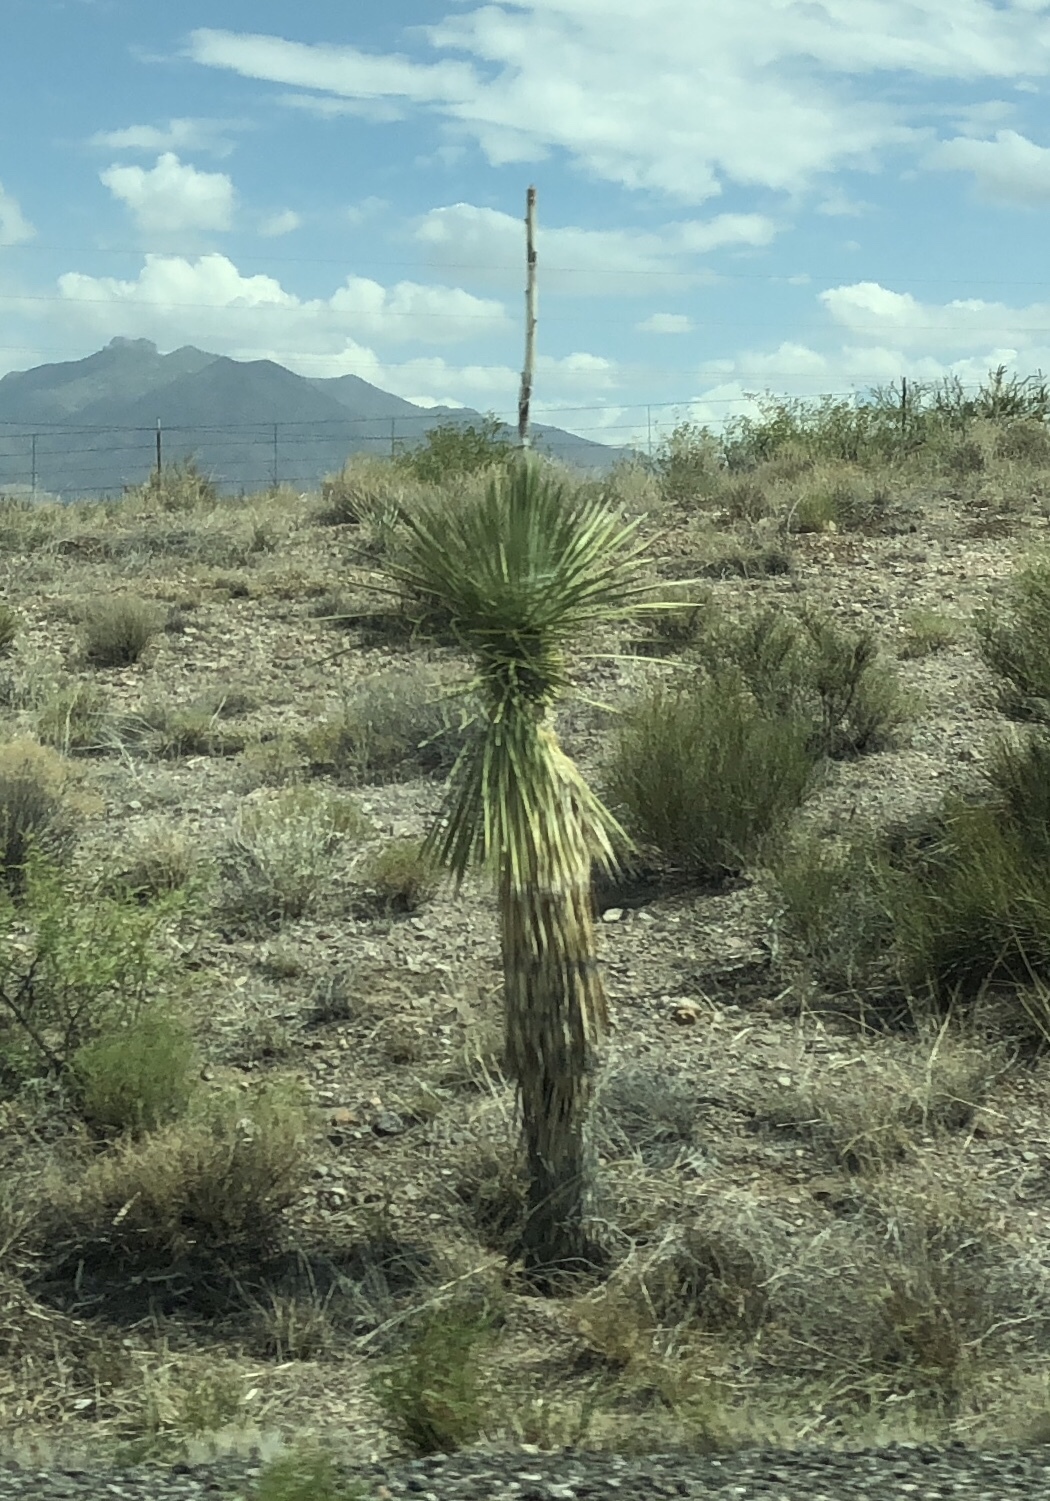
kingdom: Plantae
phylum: Tracheophyta
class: Liliopsida
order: Asparagales
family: Asparagaceae
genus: Yucca
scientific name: Yucca elata
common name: Palmella
